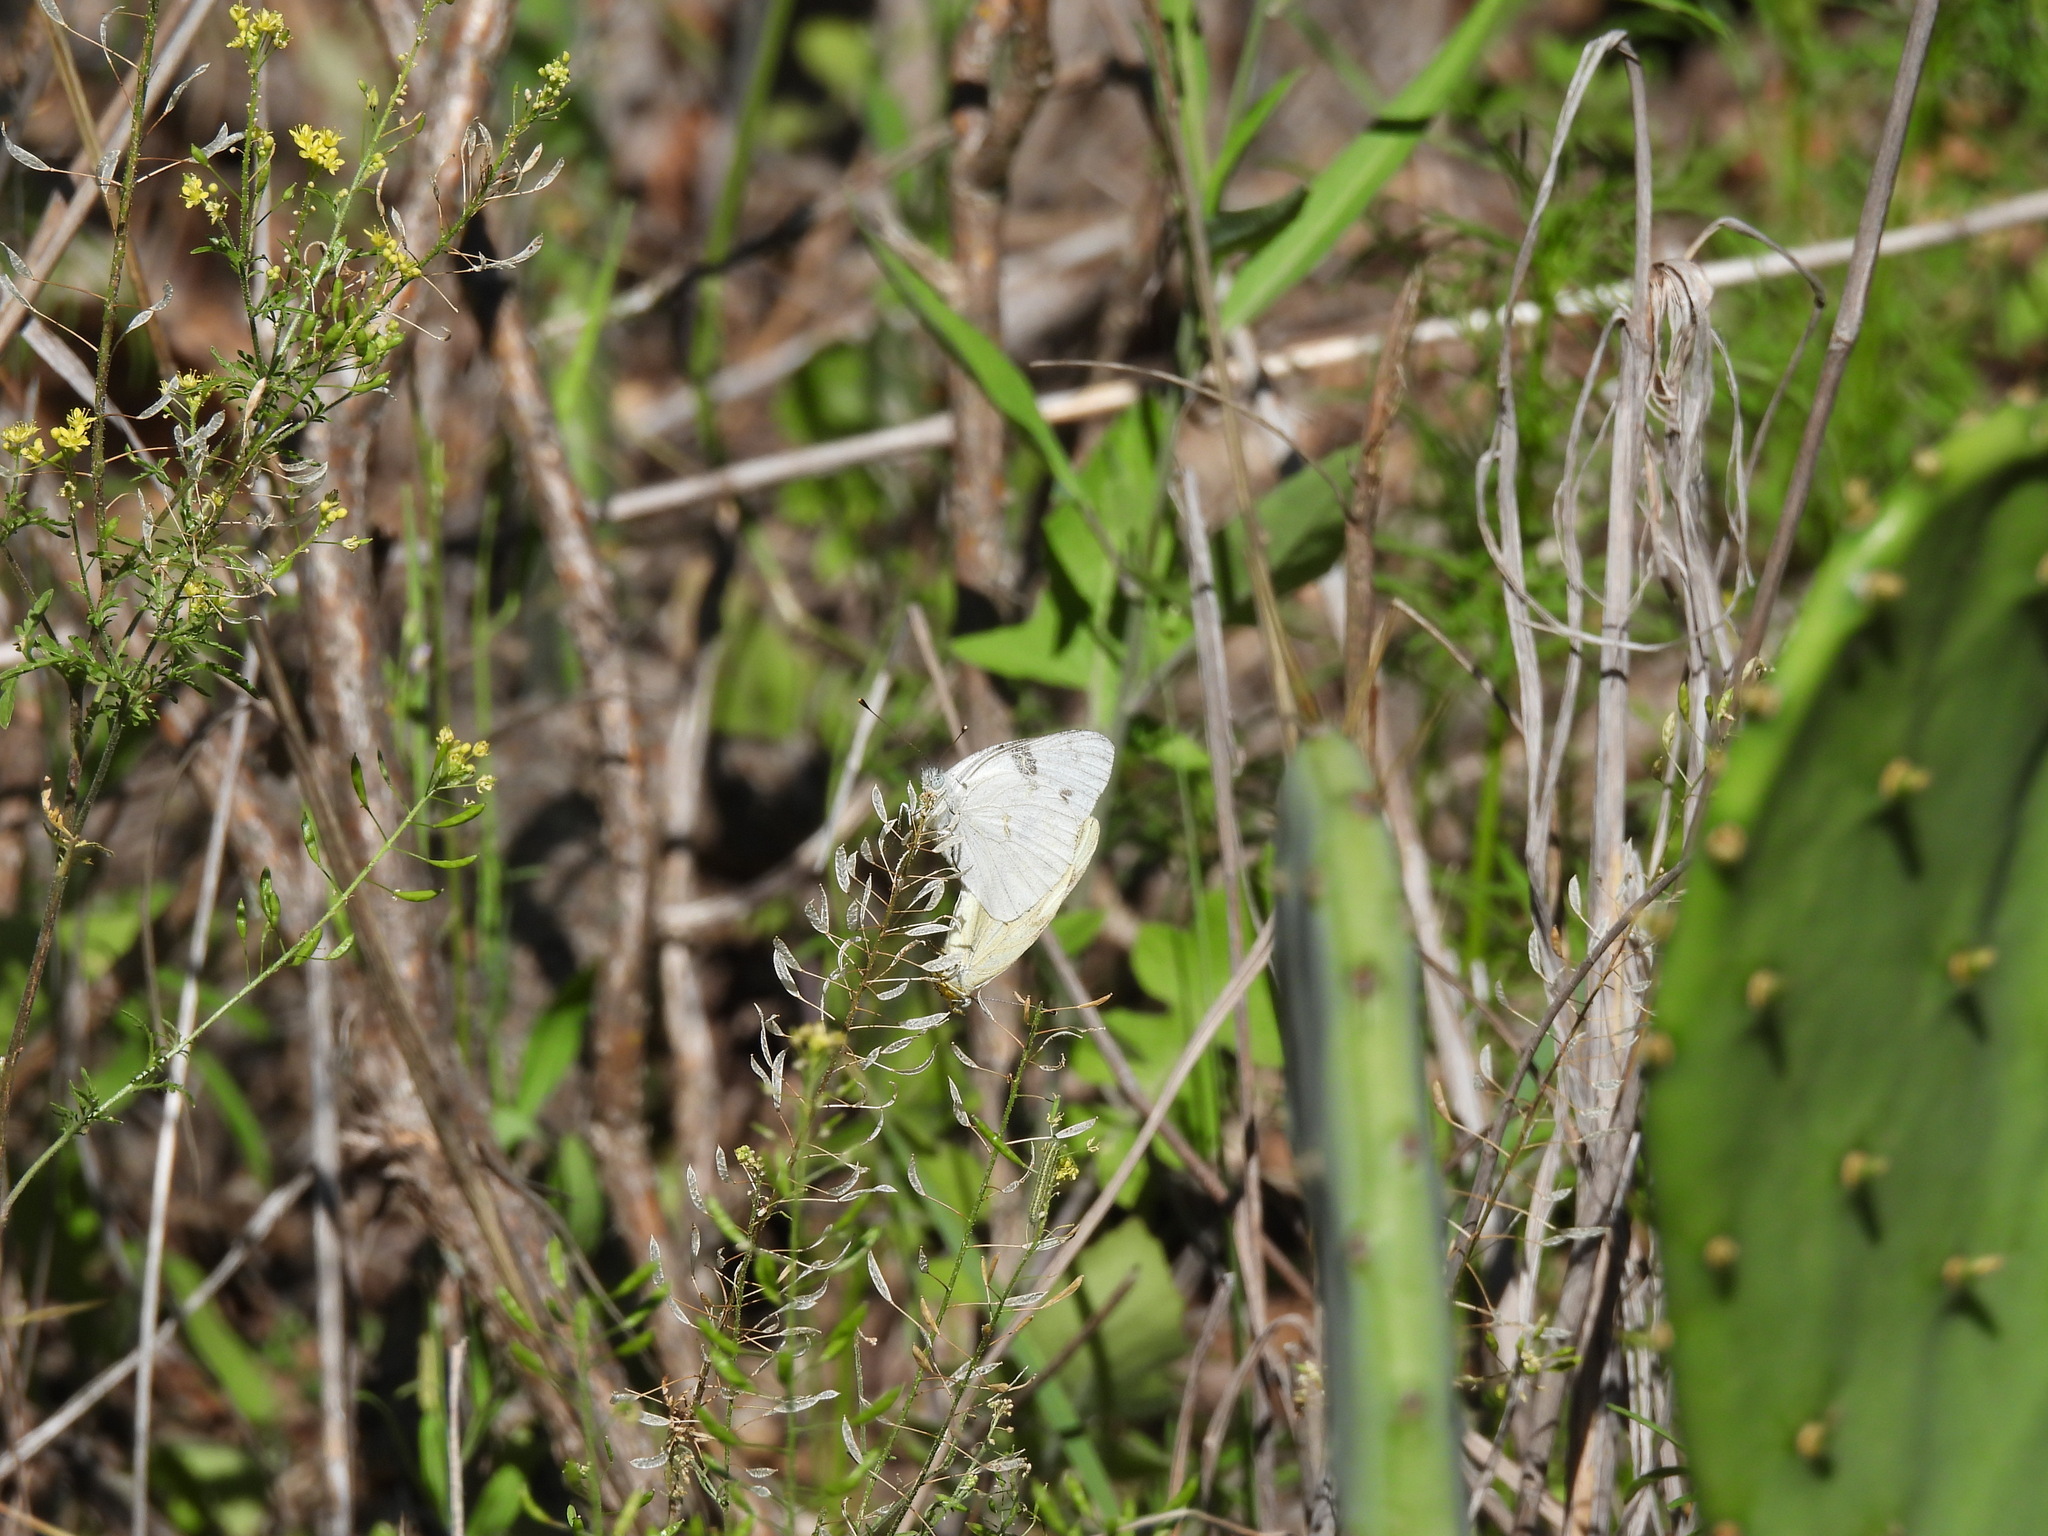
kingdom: Animalia
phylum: Arthropoda
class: Insecta
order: Lepidoptera
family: Pieridae
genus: Pontia
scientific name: Pontia protodice
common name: Checkered white
